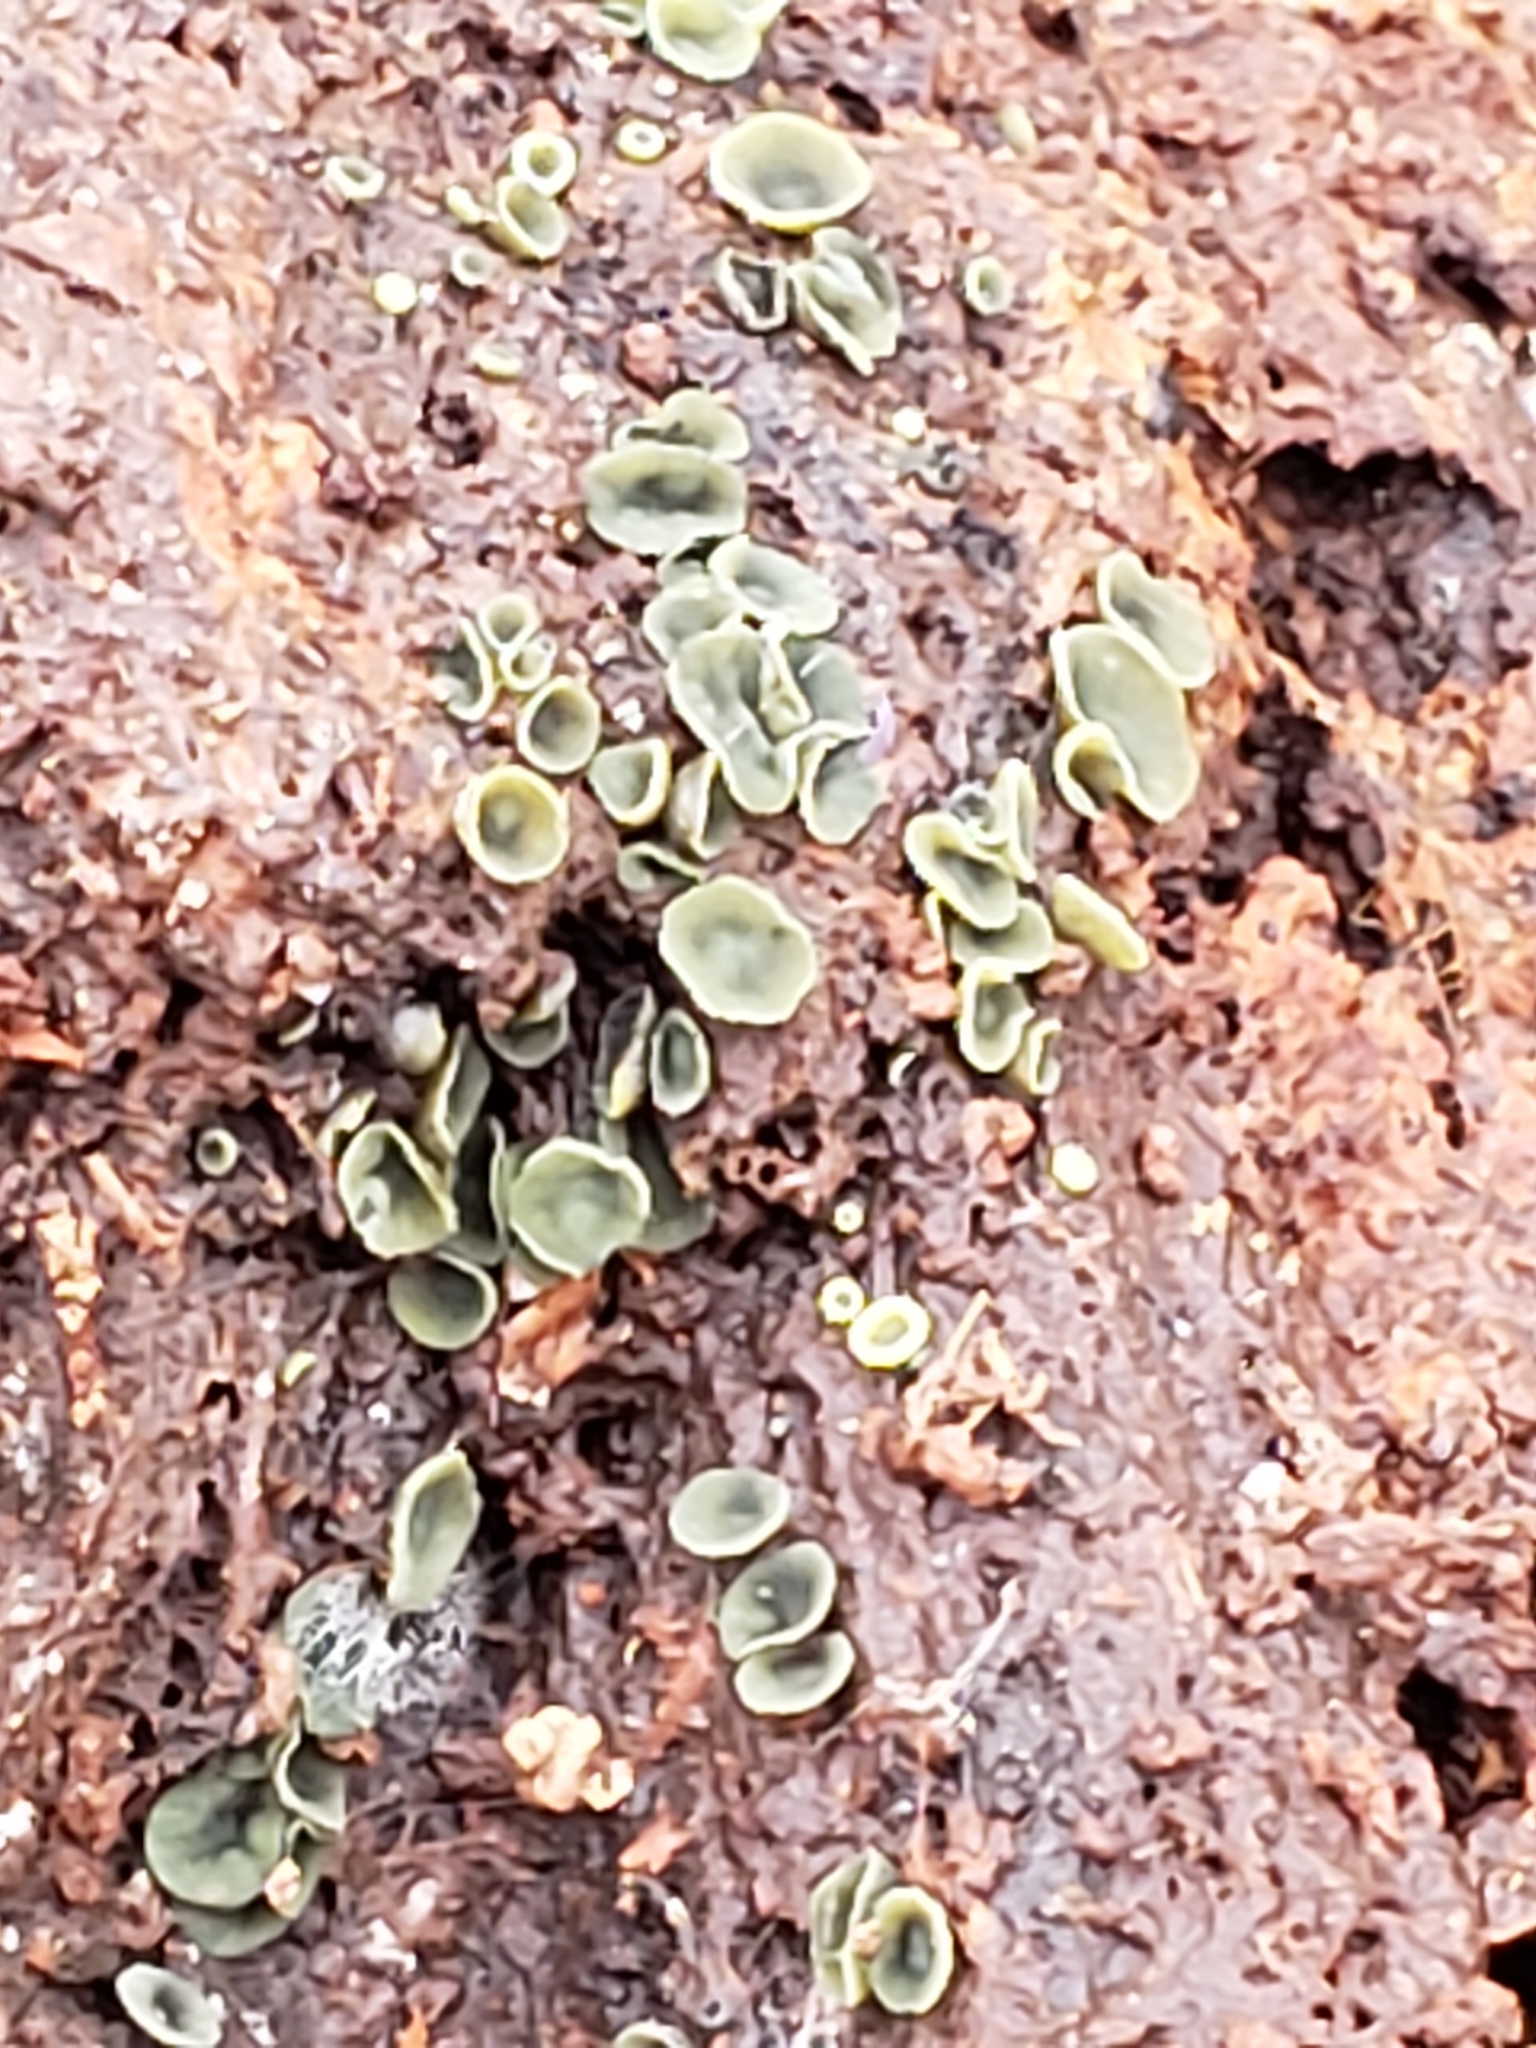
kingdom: Fungi
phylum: Ascomycota
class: Leotiomycetes
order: Helotiales
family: Chlorospleniaceae
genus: Chlorosplenium
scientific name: Chlorosplenium chlora
